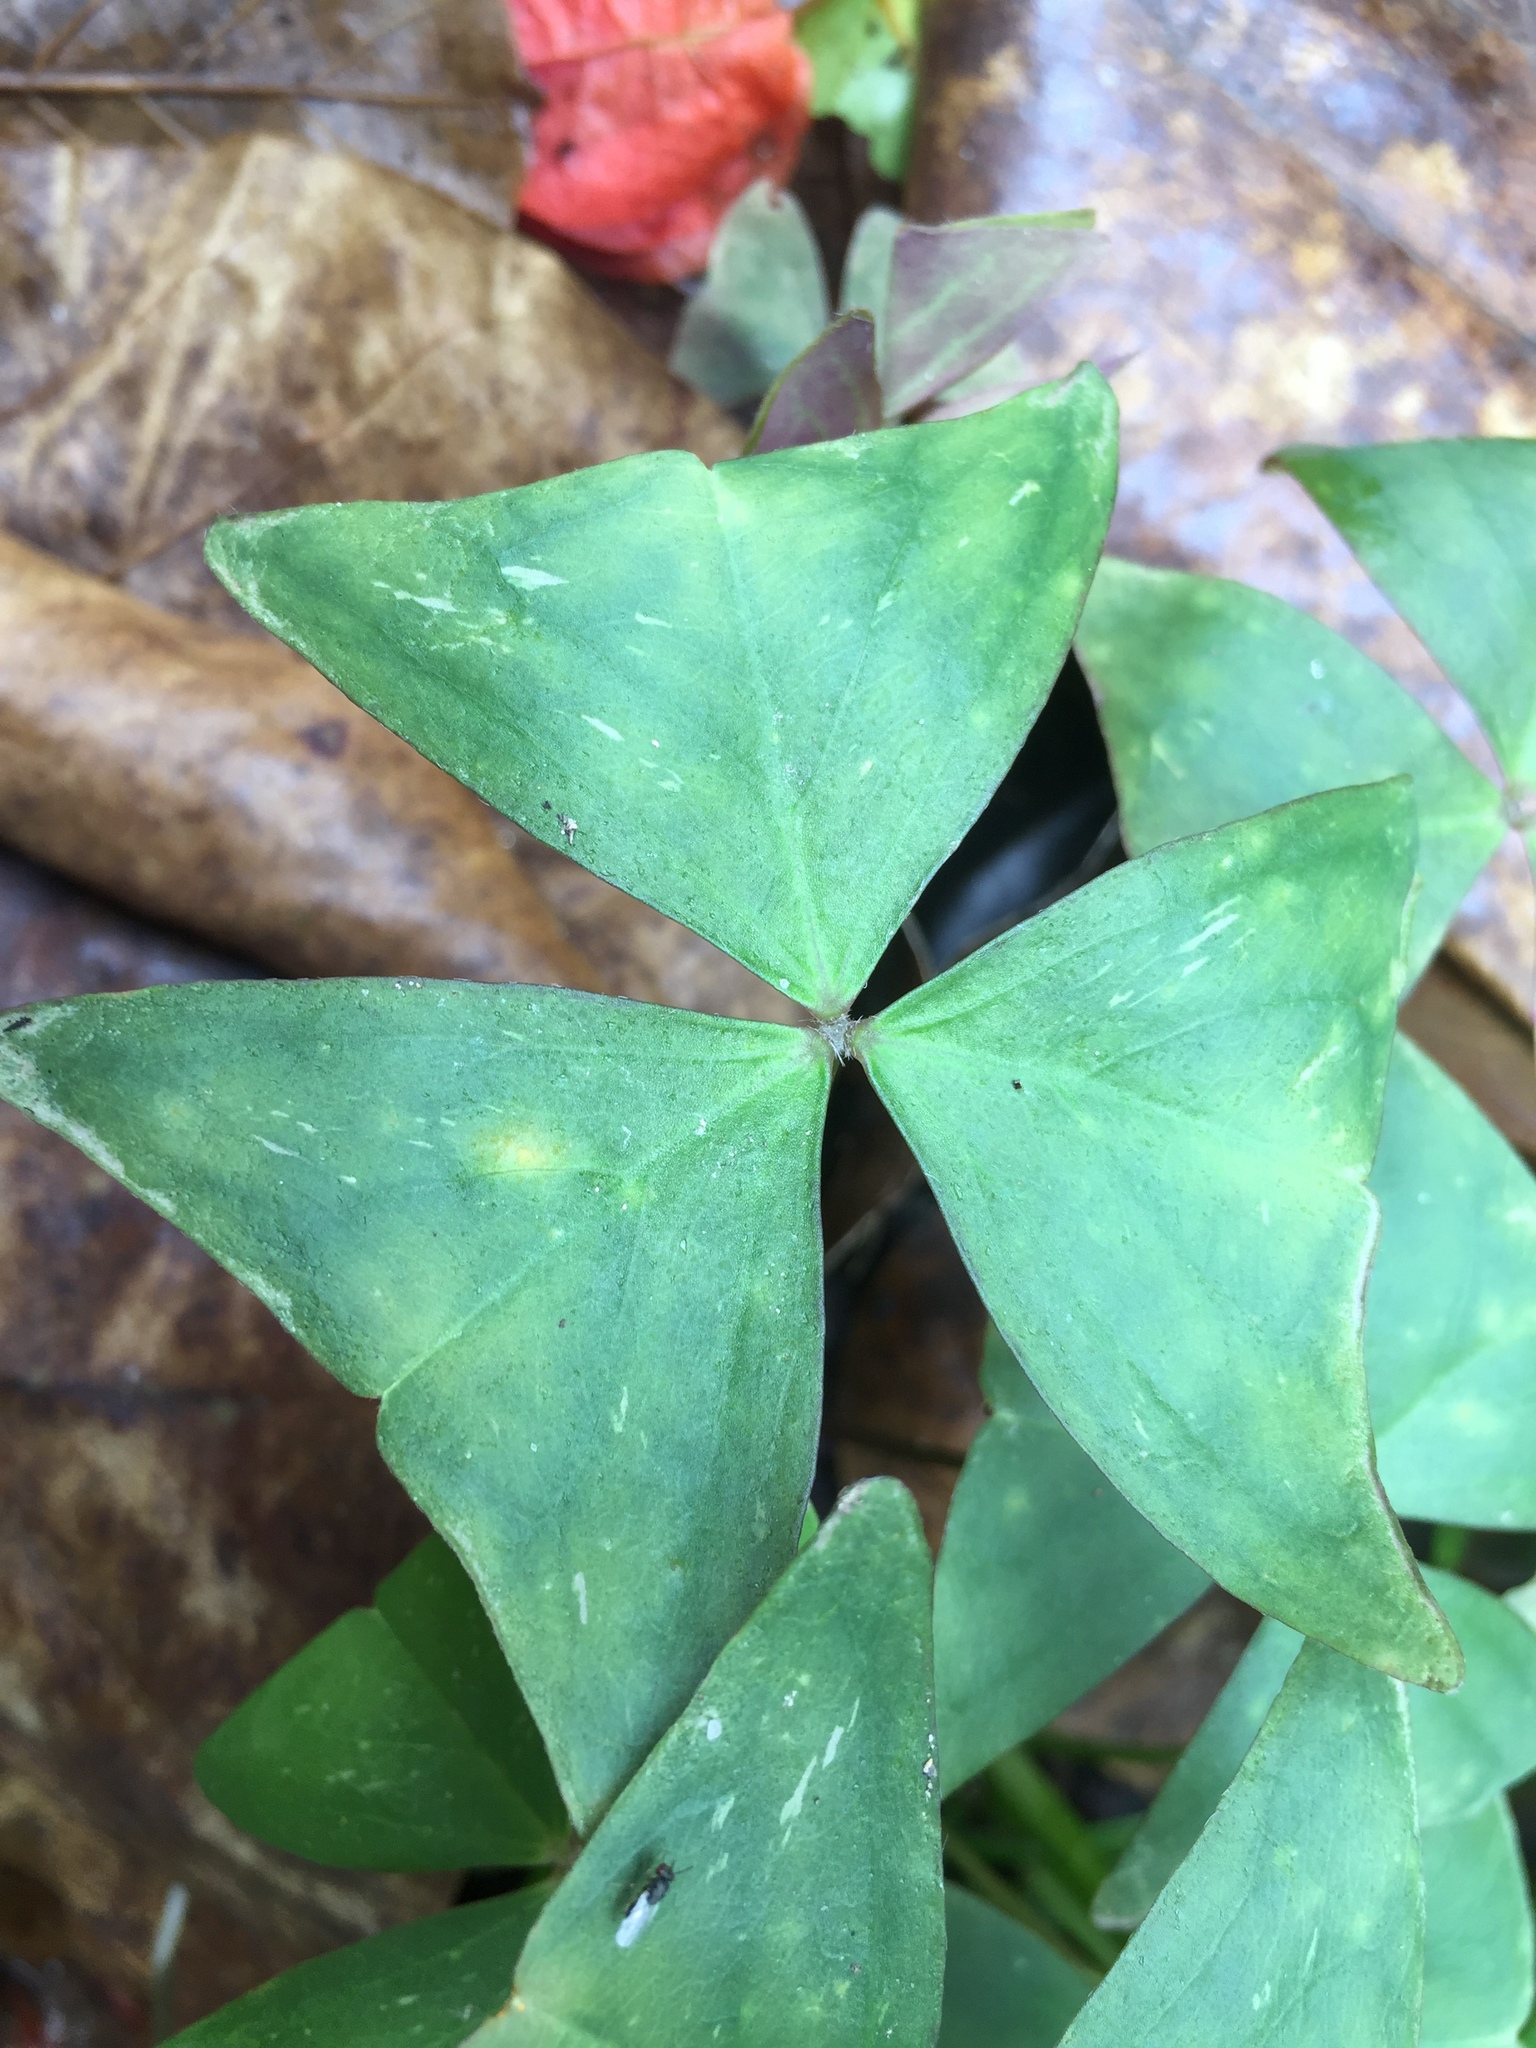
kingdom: Plantae
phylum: Tracheophyta
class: Magnoliopsida
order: Oxalidales
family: Oxalidaceae
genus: Oxalis
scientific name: Oxalis triangularis
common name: Wood sorrel
